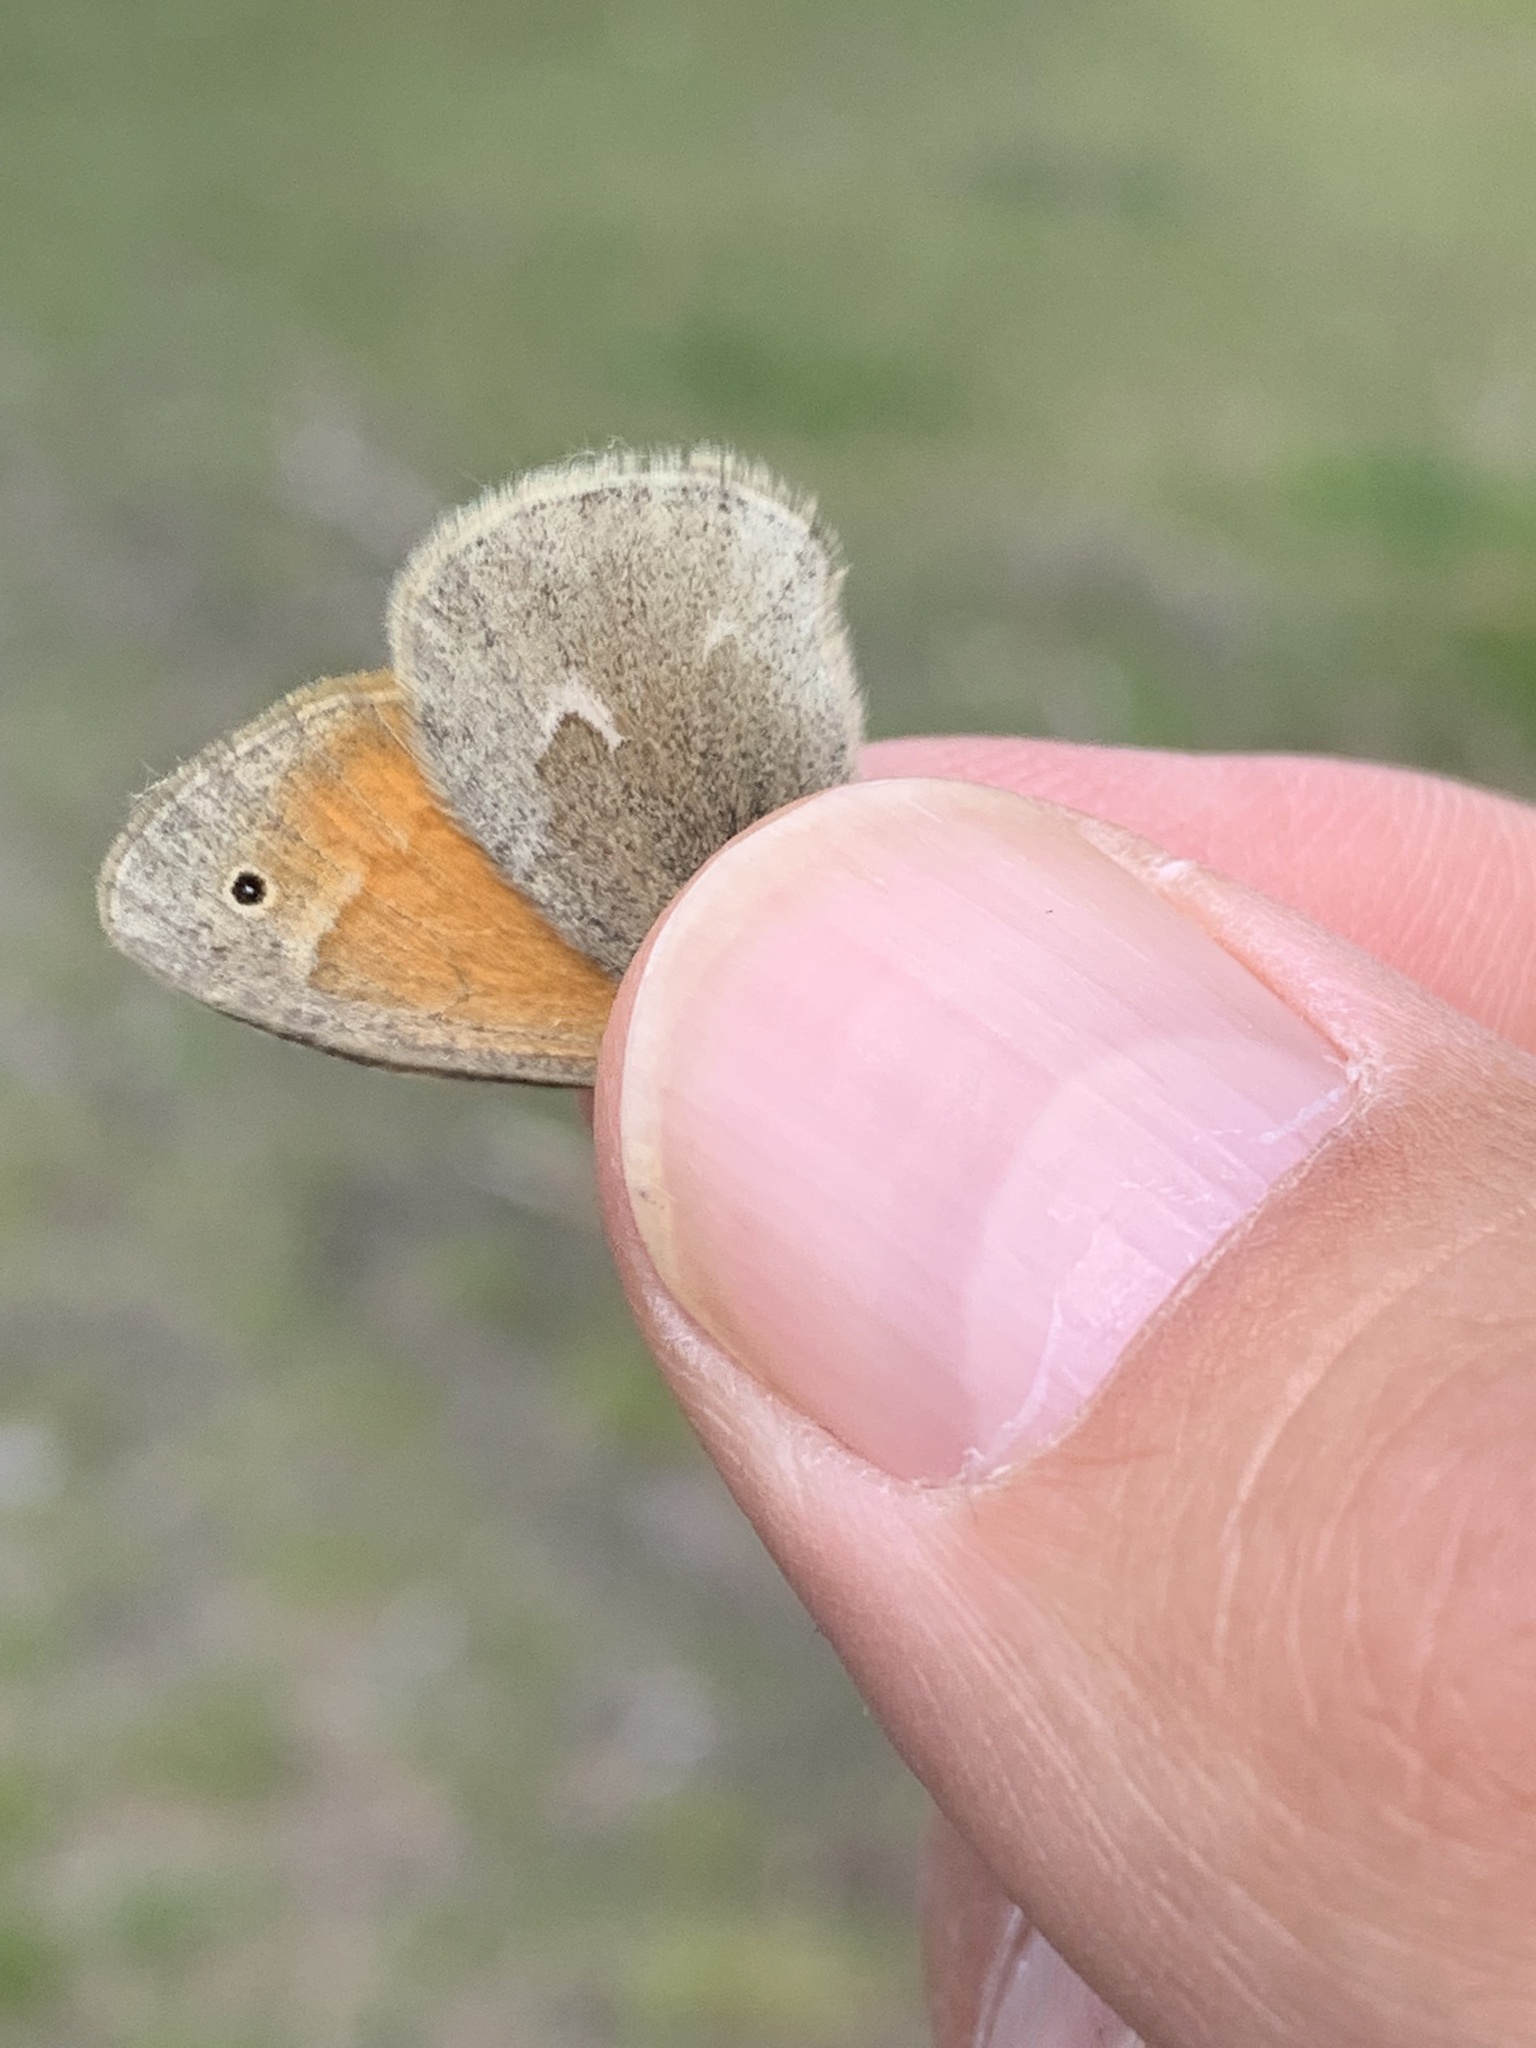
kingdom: Animalia
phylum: Arthropoda
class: Insecta
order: Lepidoptera
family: Nymphalidae
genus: Coenonympha
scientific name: Coenonympha california
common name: Common ringlet
